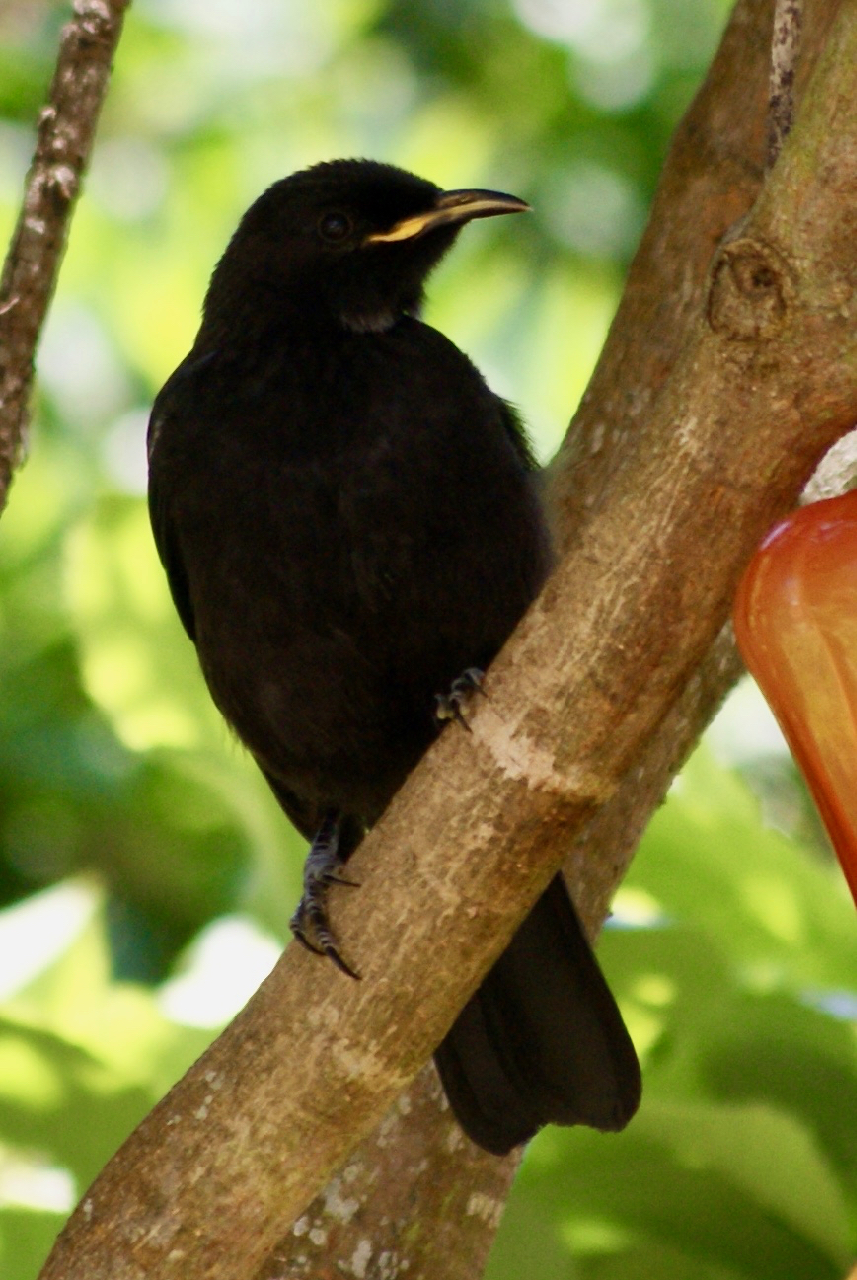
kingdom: Animalia
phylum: Chordata
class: Aves
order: Passeriformes
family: Meliphagidae
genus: Prosthemadera
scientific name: Prosthemadera novaeseelandiae
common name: Tui
